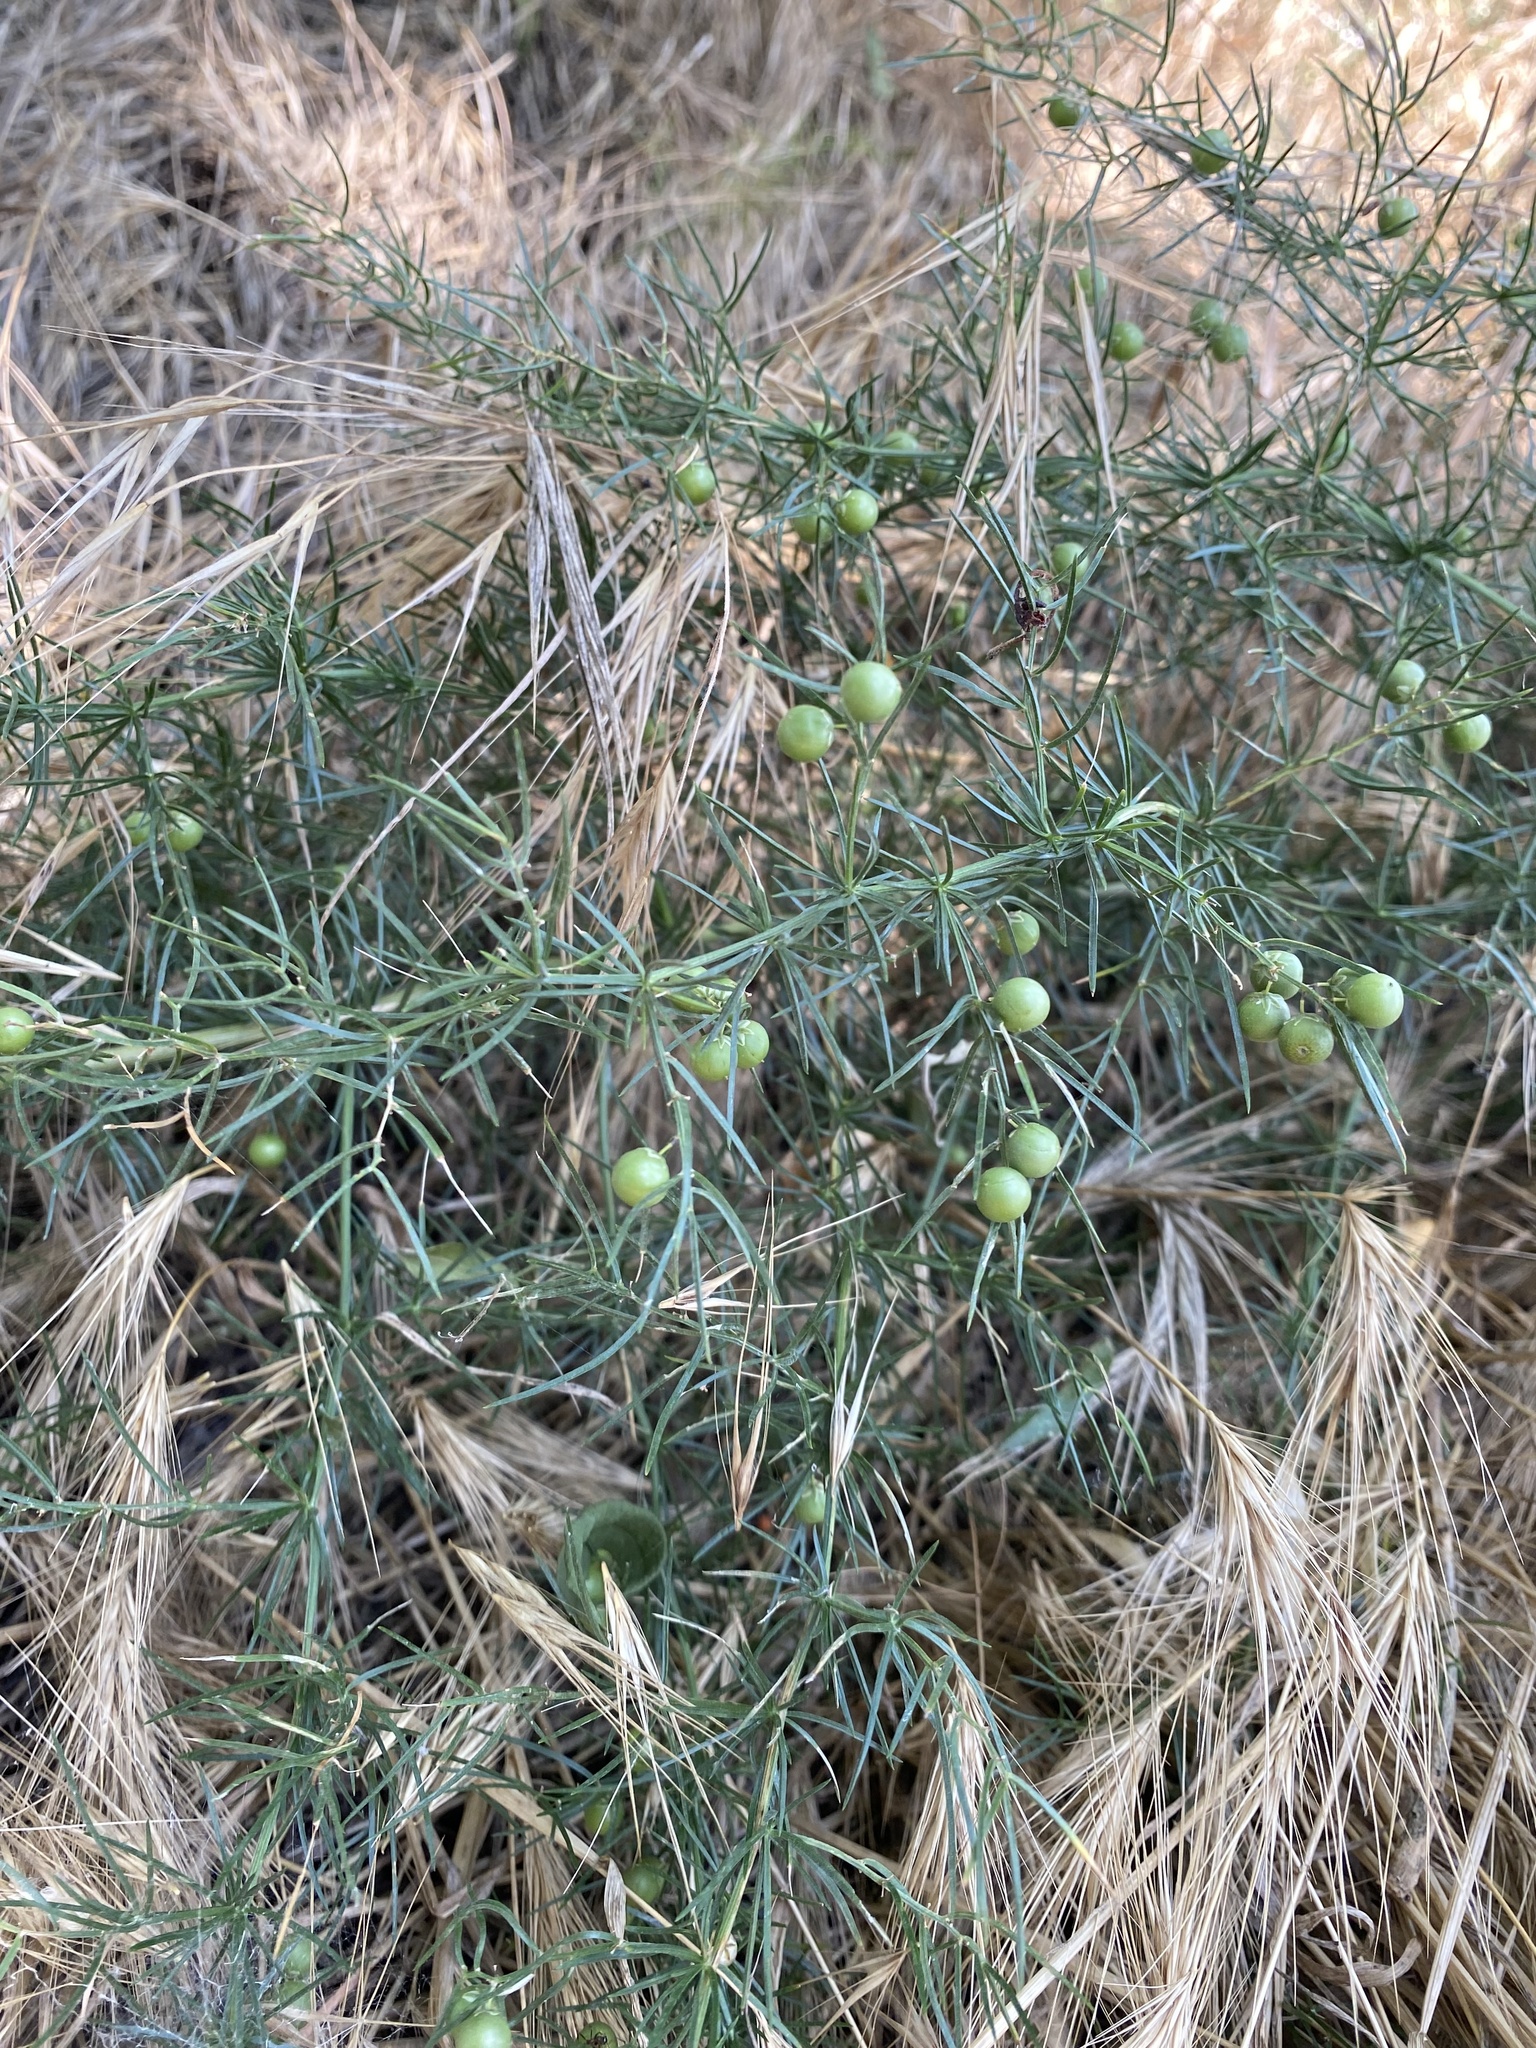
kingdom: Plantae
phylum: Tracheophyta
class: Liliopsida
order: Asparagales
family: Asparagaceae
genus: Asparagus
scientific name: Asparagus verticillatus
